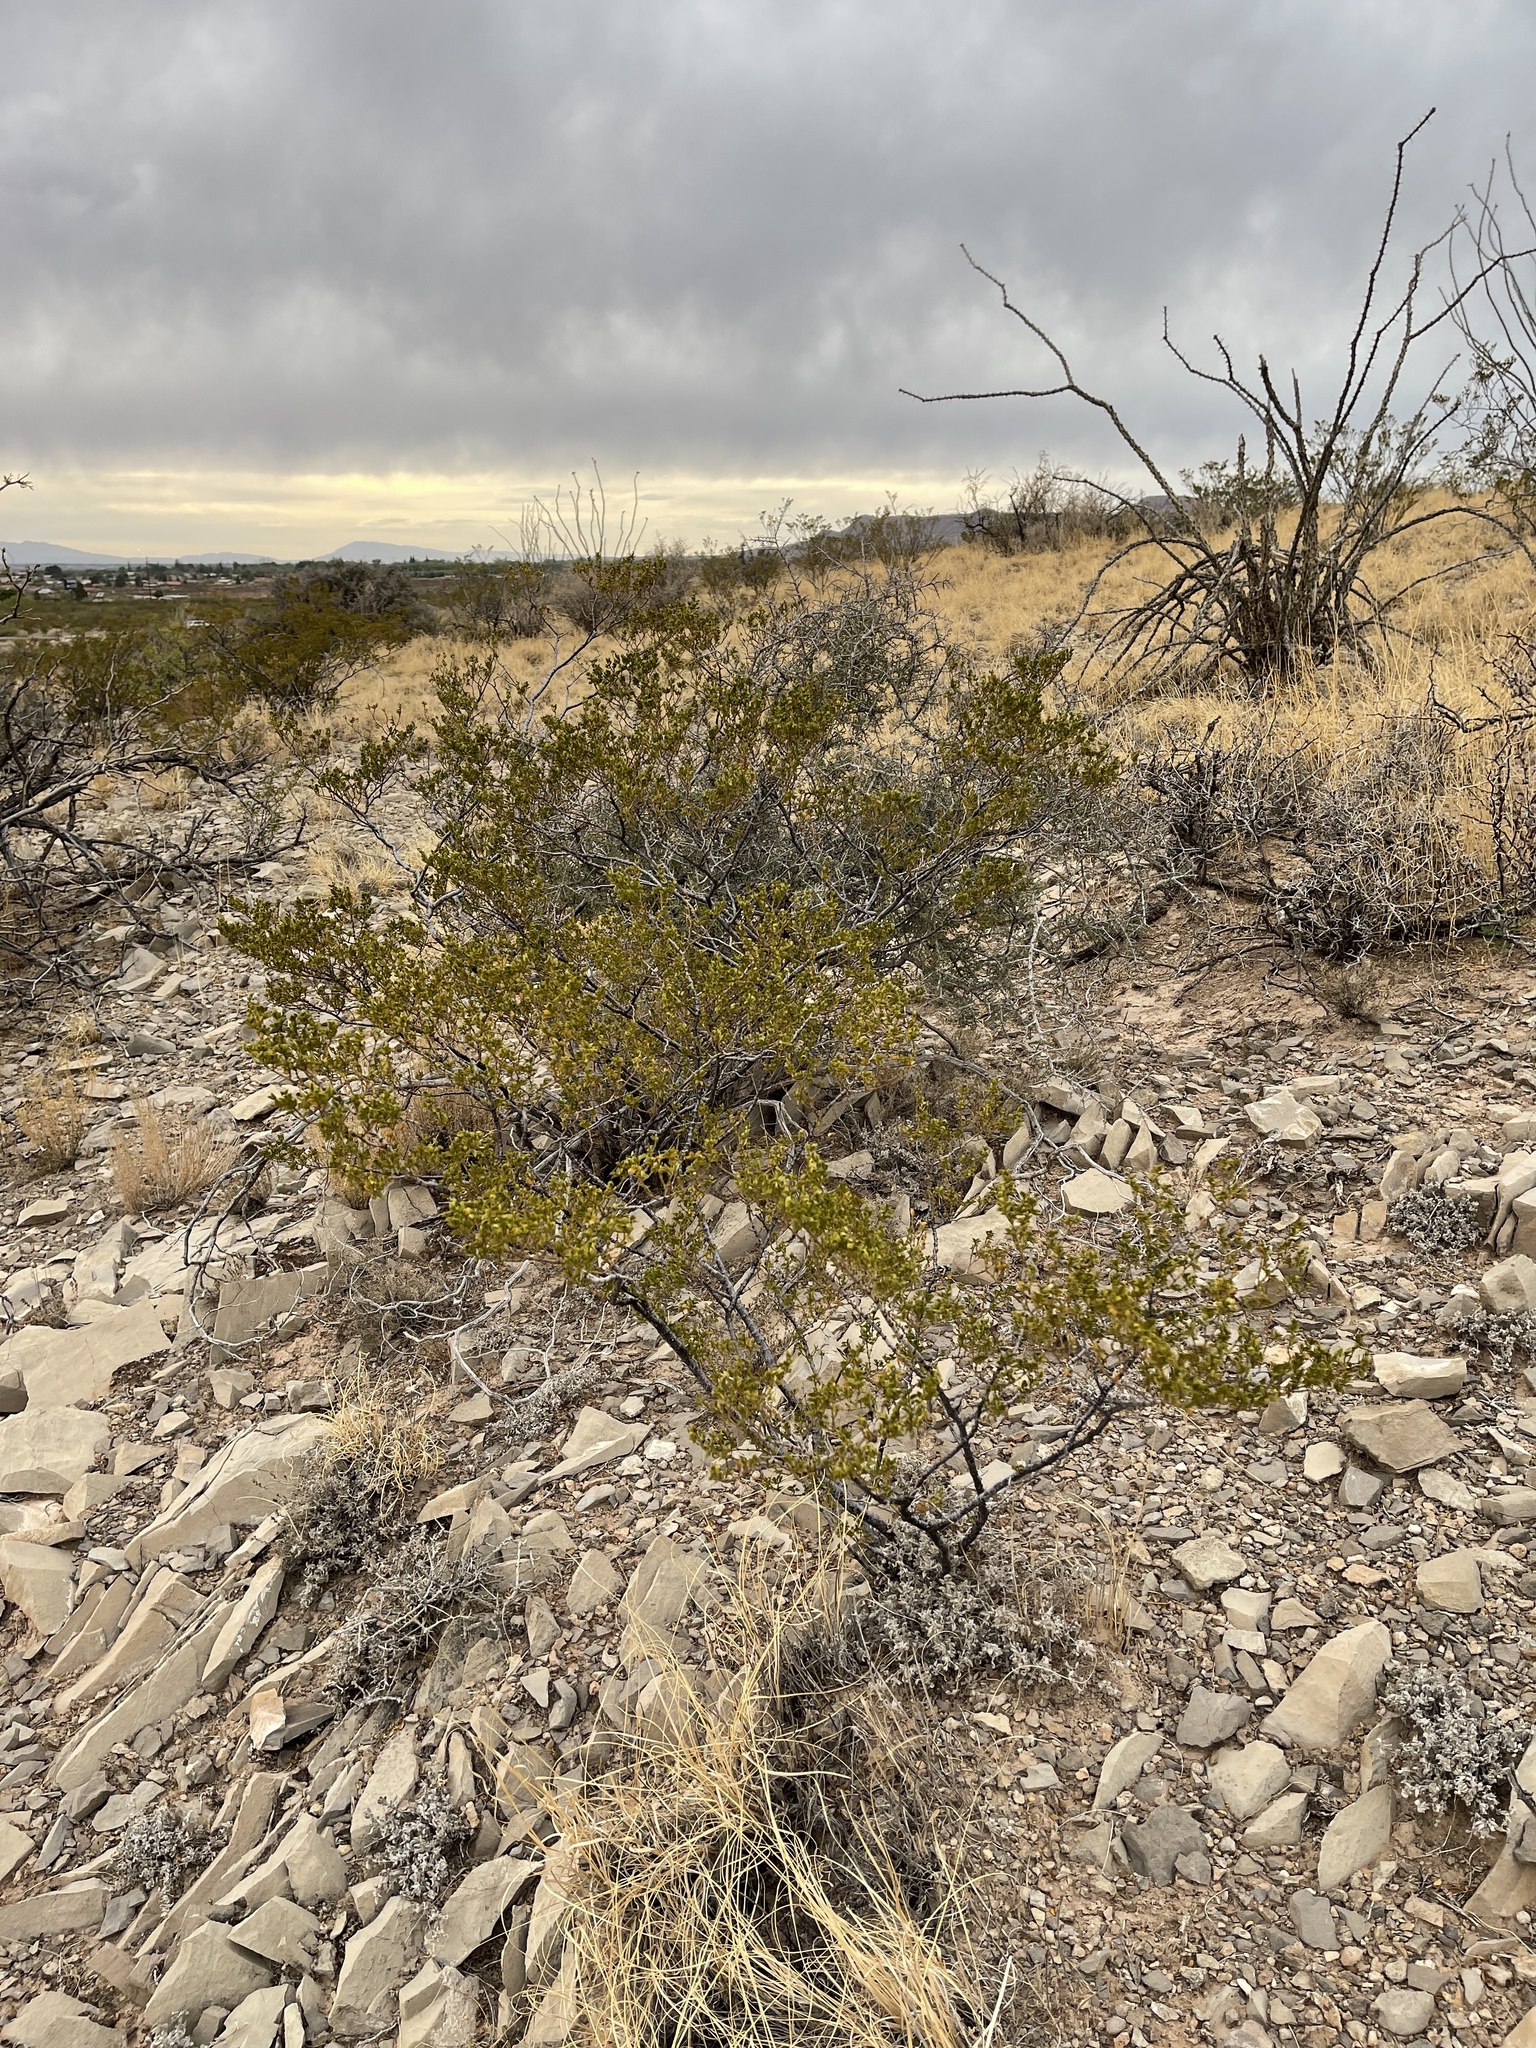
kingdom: Plantae
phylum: Tracheophyta
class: Magnoliopsida
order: Zygophyllales
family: Zygophyllaceae
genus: Larrea
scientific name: Larrea tridentata
